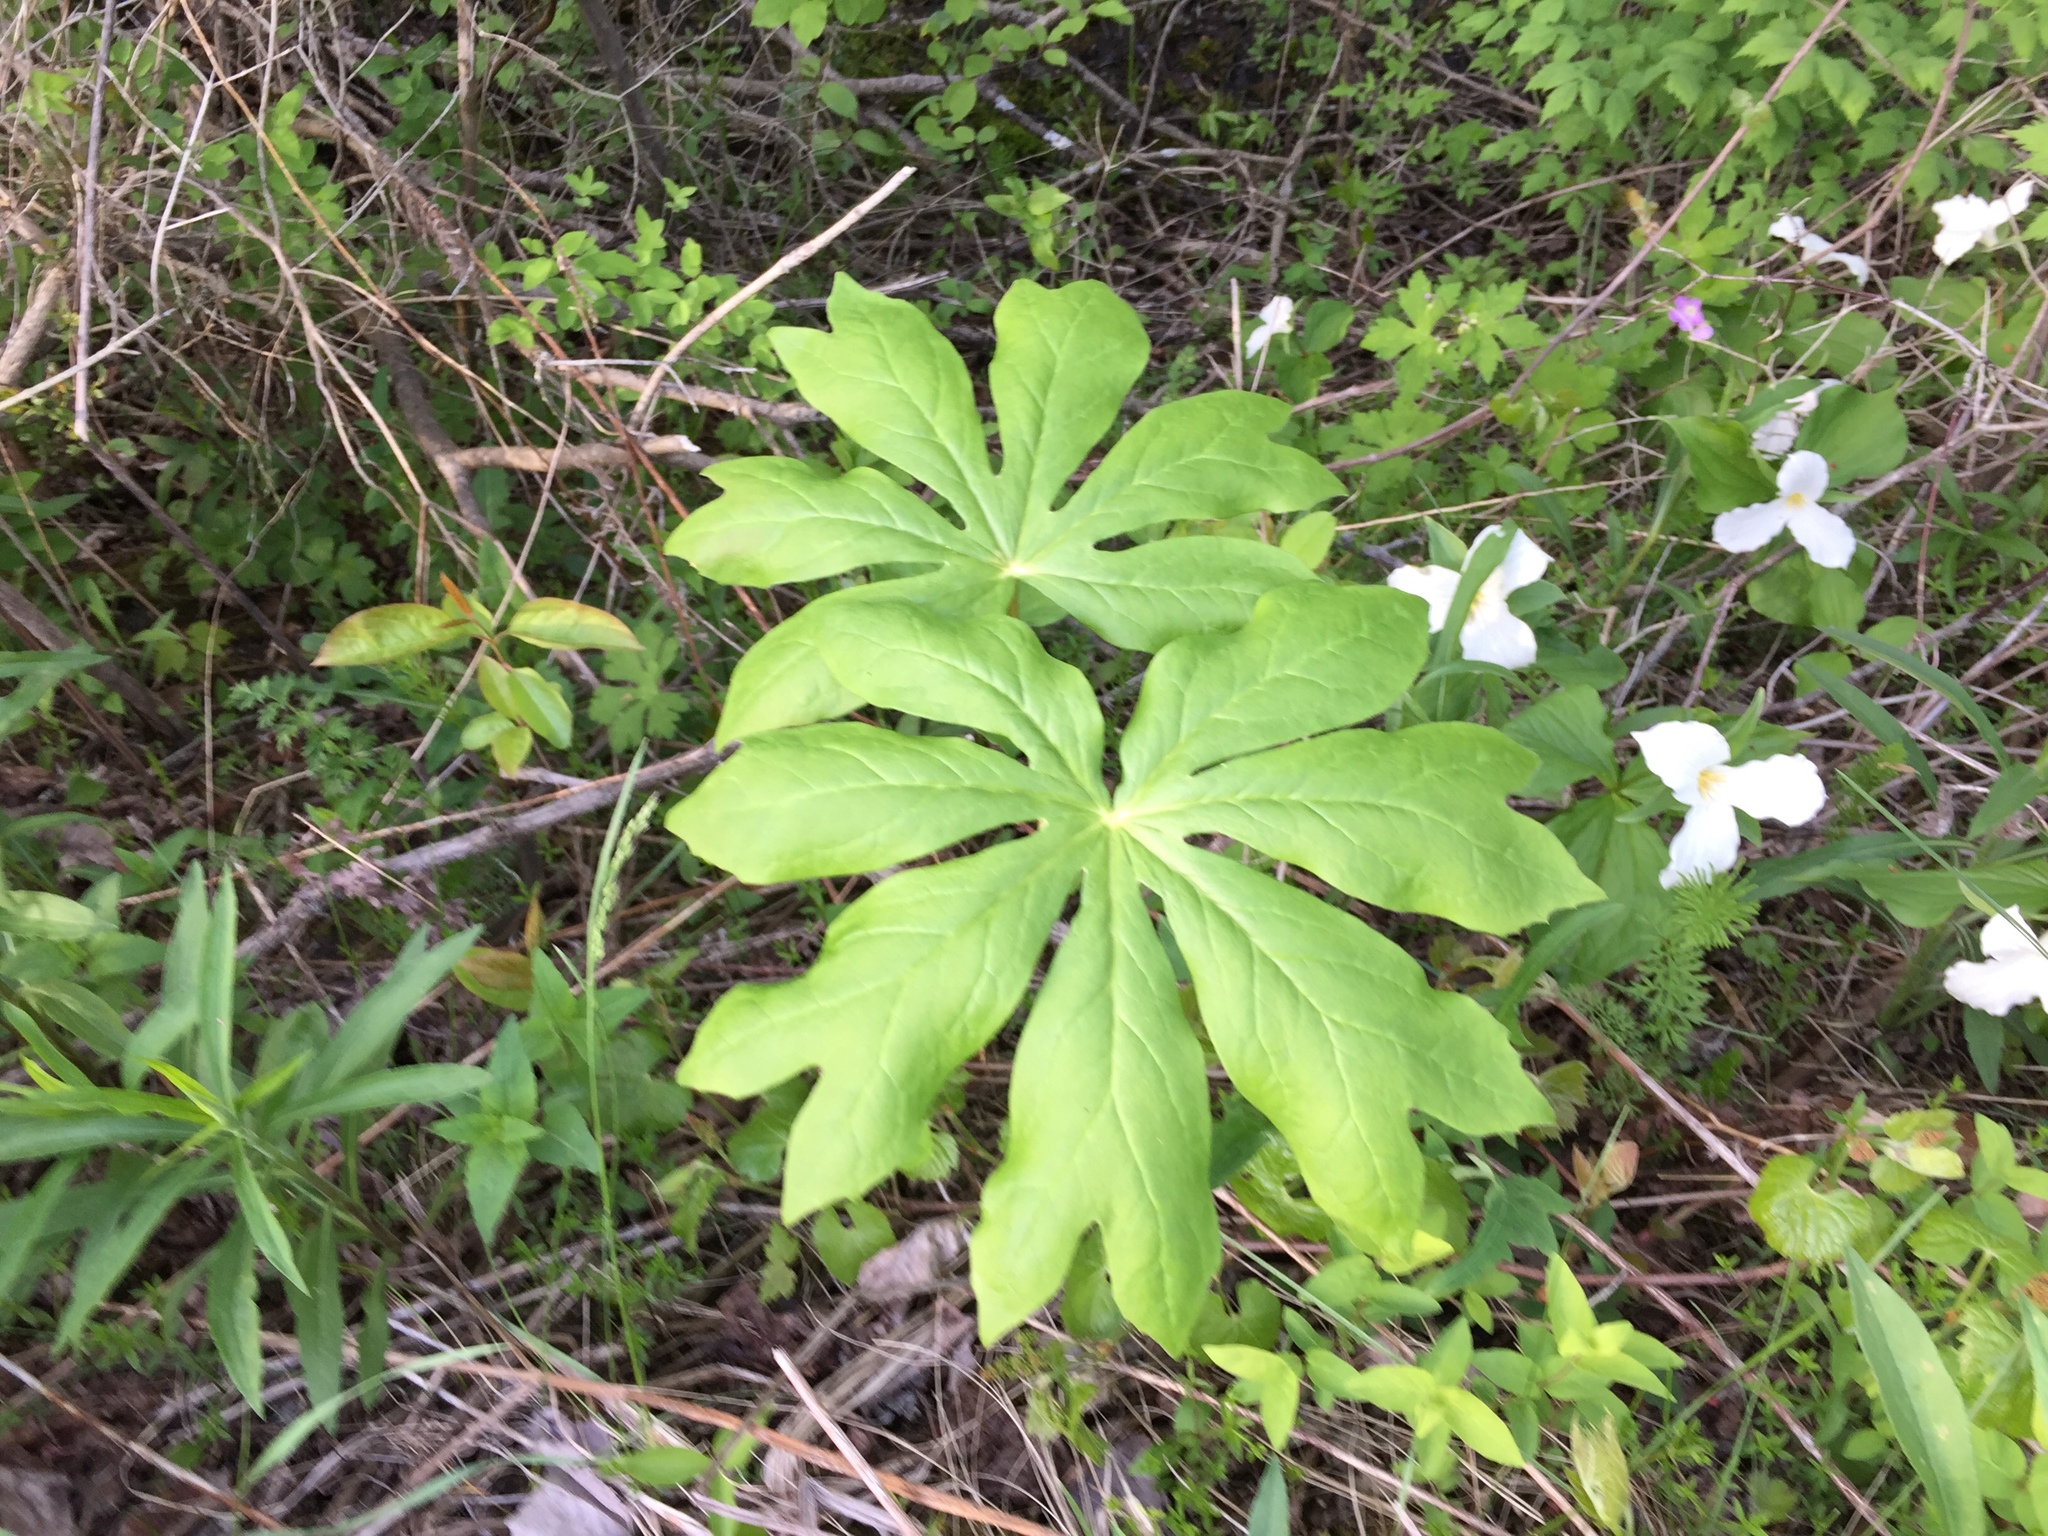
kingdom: Plantae
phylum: Tracheophyta
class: Magnoliopsida
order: Ranunculales
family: Berberidaceae
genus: Podophyllum
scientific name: Podophyllum peltatum
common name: Wild mandrake
